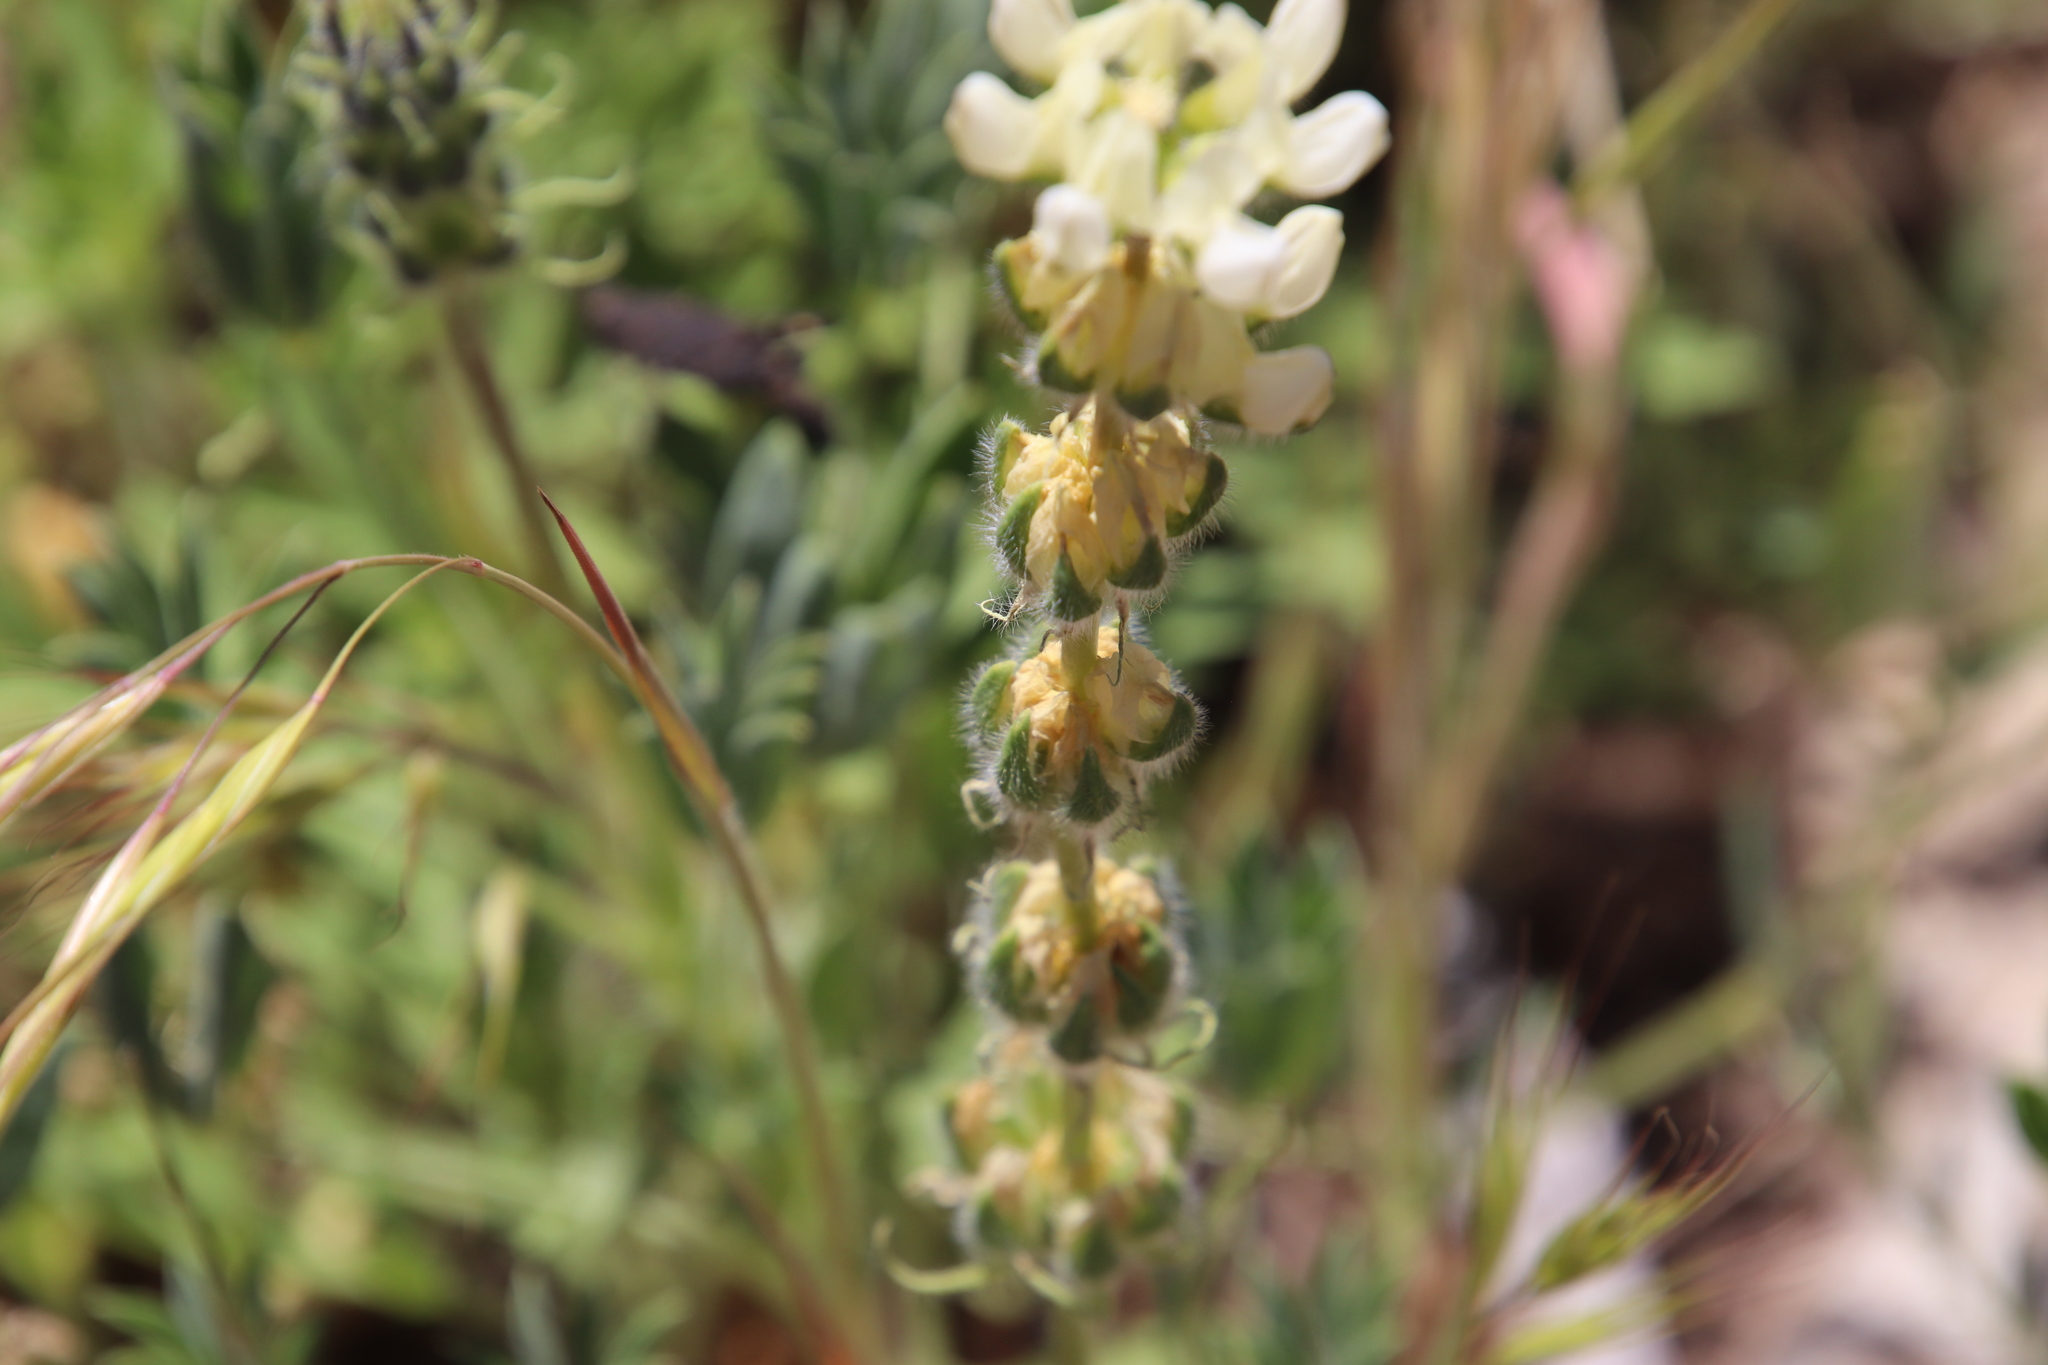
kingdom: Plantae
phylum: Tracheophyta
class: Magnoliopsida
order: Fabales
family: Fabaceae
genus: Lupinus
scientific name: Lupinus microcarpus
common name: Chick lupine
